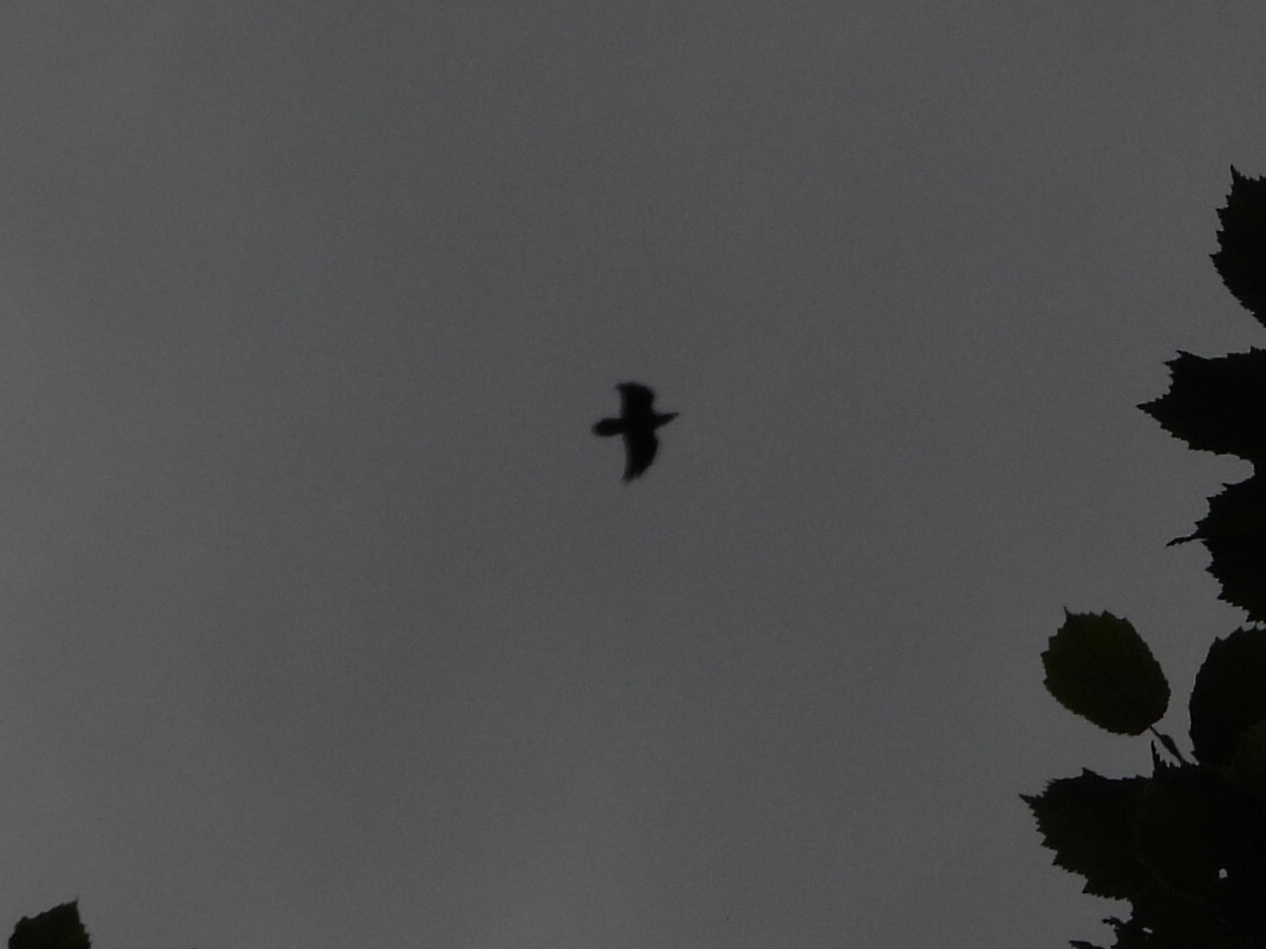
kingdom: Animalia
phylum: Chordata
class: Aves
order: Passeriformes
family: Corvidae
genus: Corvus
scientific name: Corvus corax
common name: Common raven
